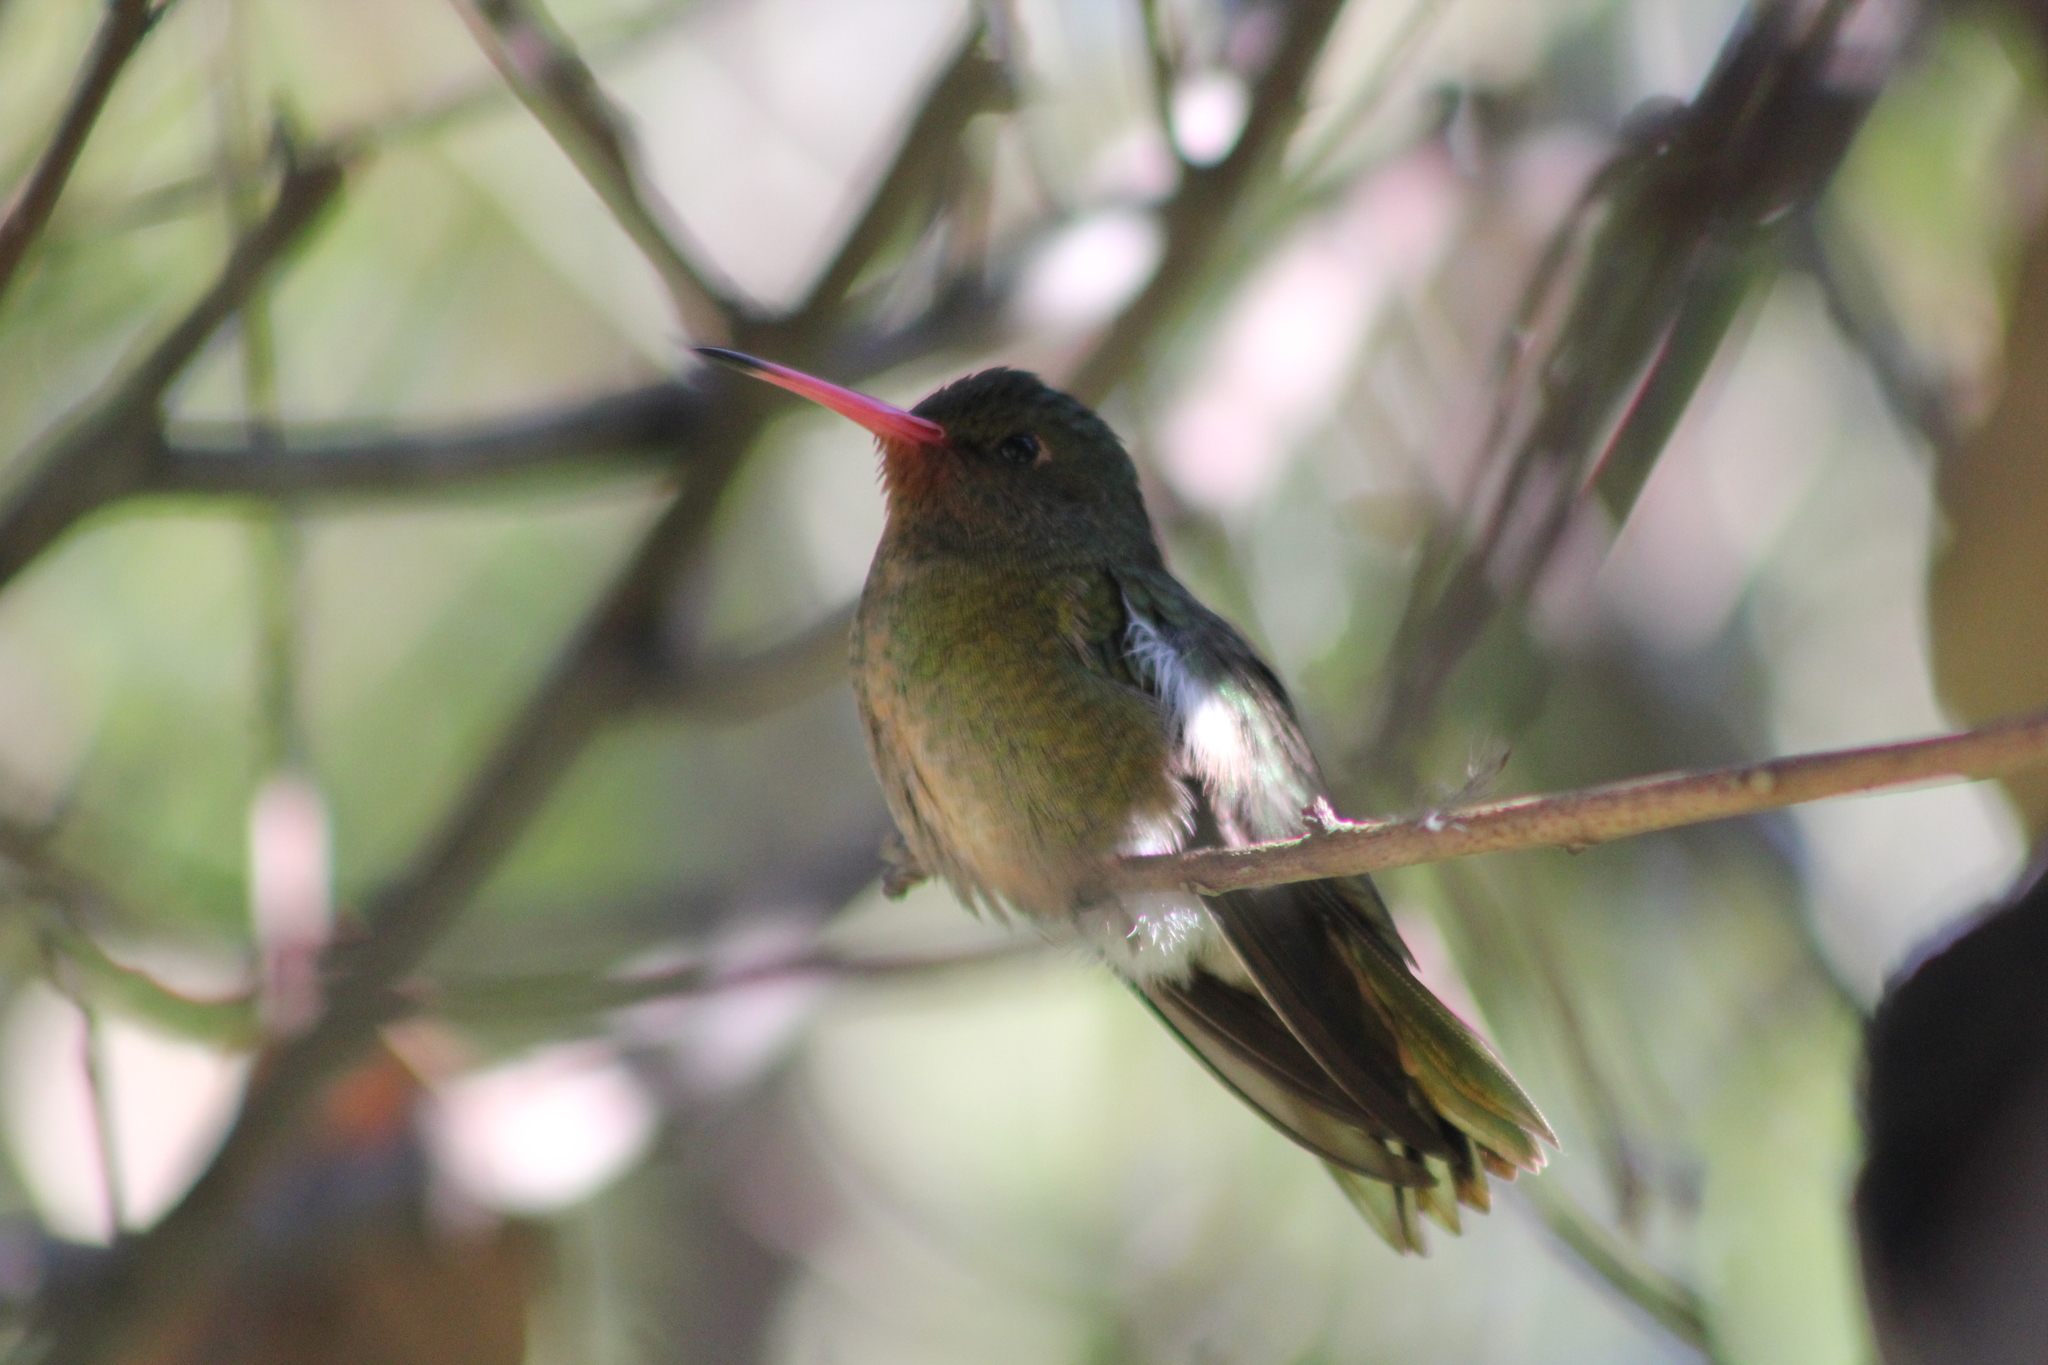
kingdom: Animalia
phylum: Chordata
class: Aves
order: Apodiformes
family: Trochilidae
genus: Hylocharis
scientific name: Hylocharis chrysura
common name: Gilded sapphire
